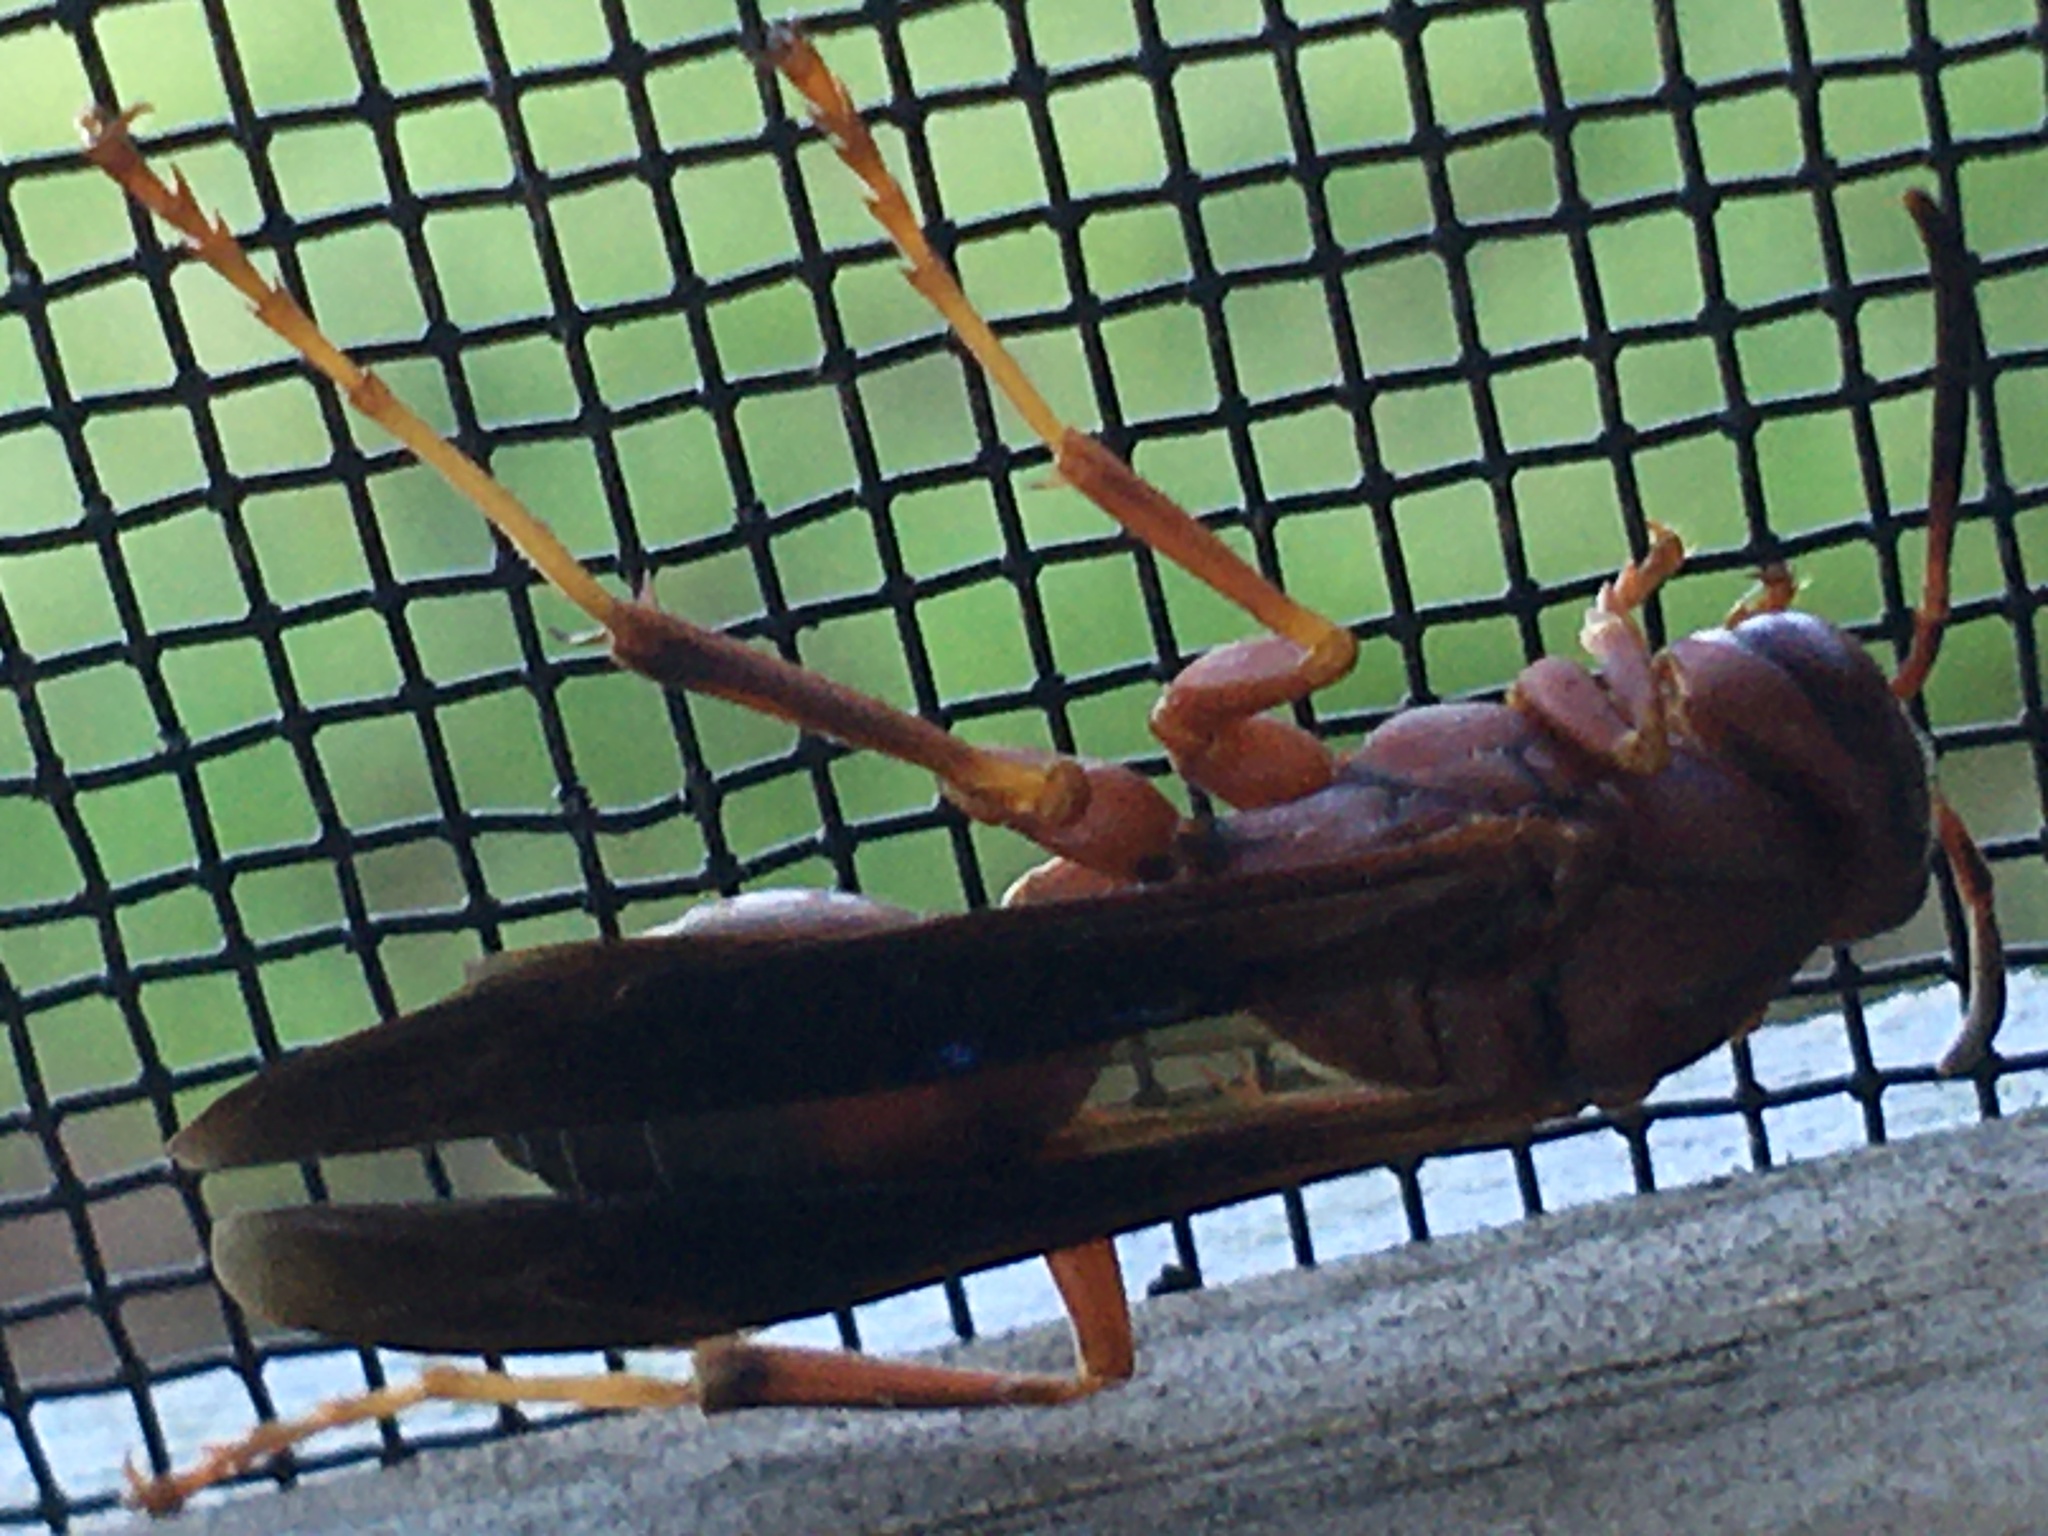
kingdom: Animalia
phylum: Arthropoda
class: Insecta
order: Hymenoptera
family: Eumenidae
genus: Polistes
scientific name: Polistes metricus
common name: Metric paper wasp
